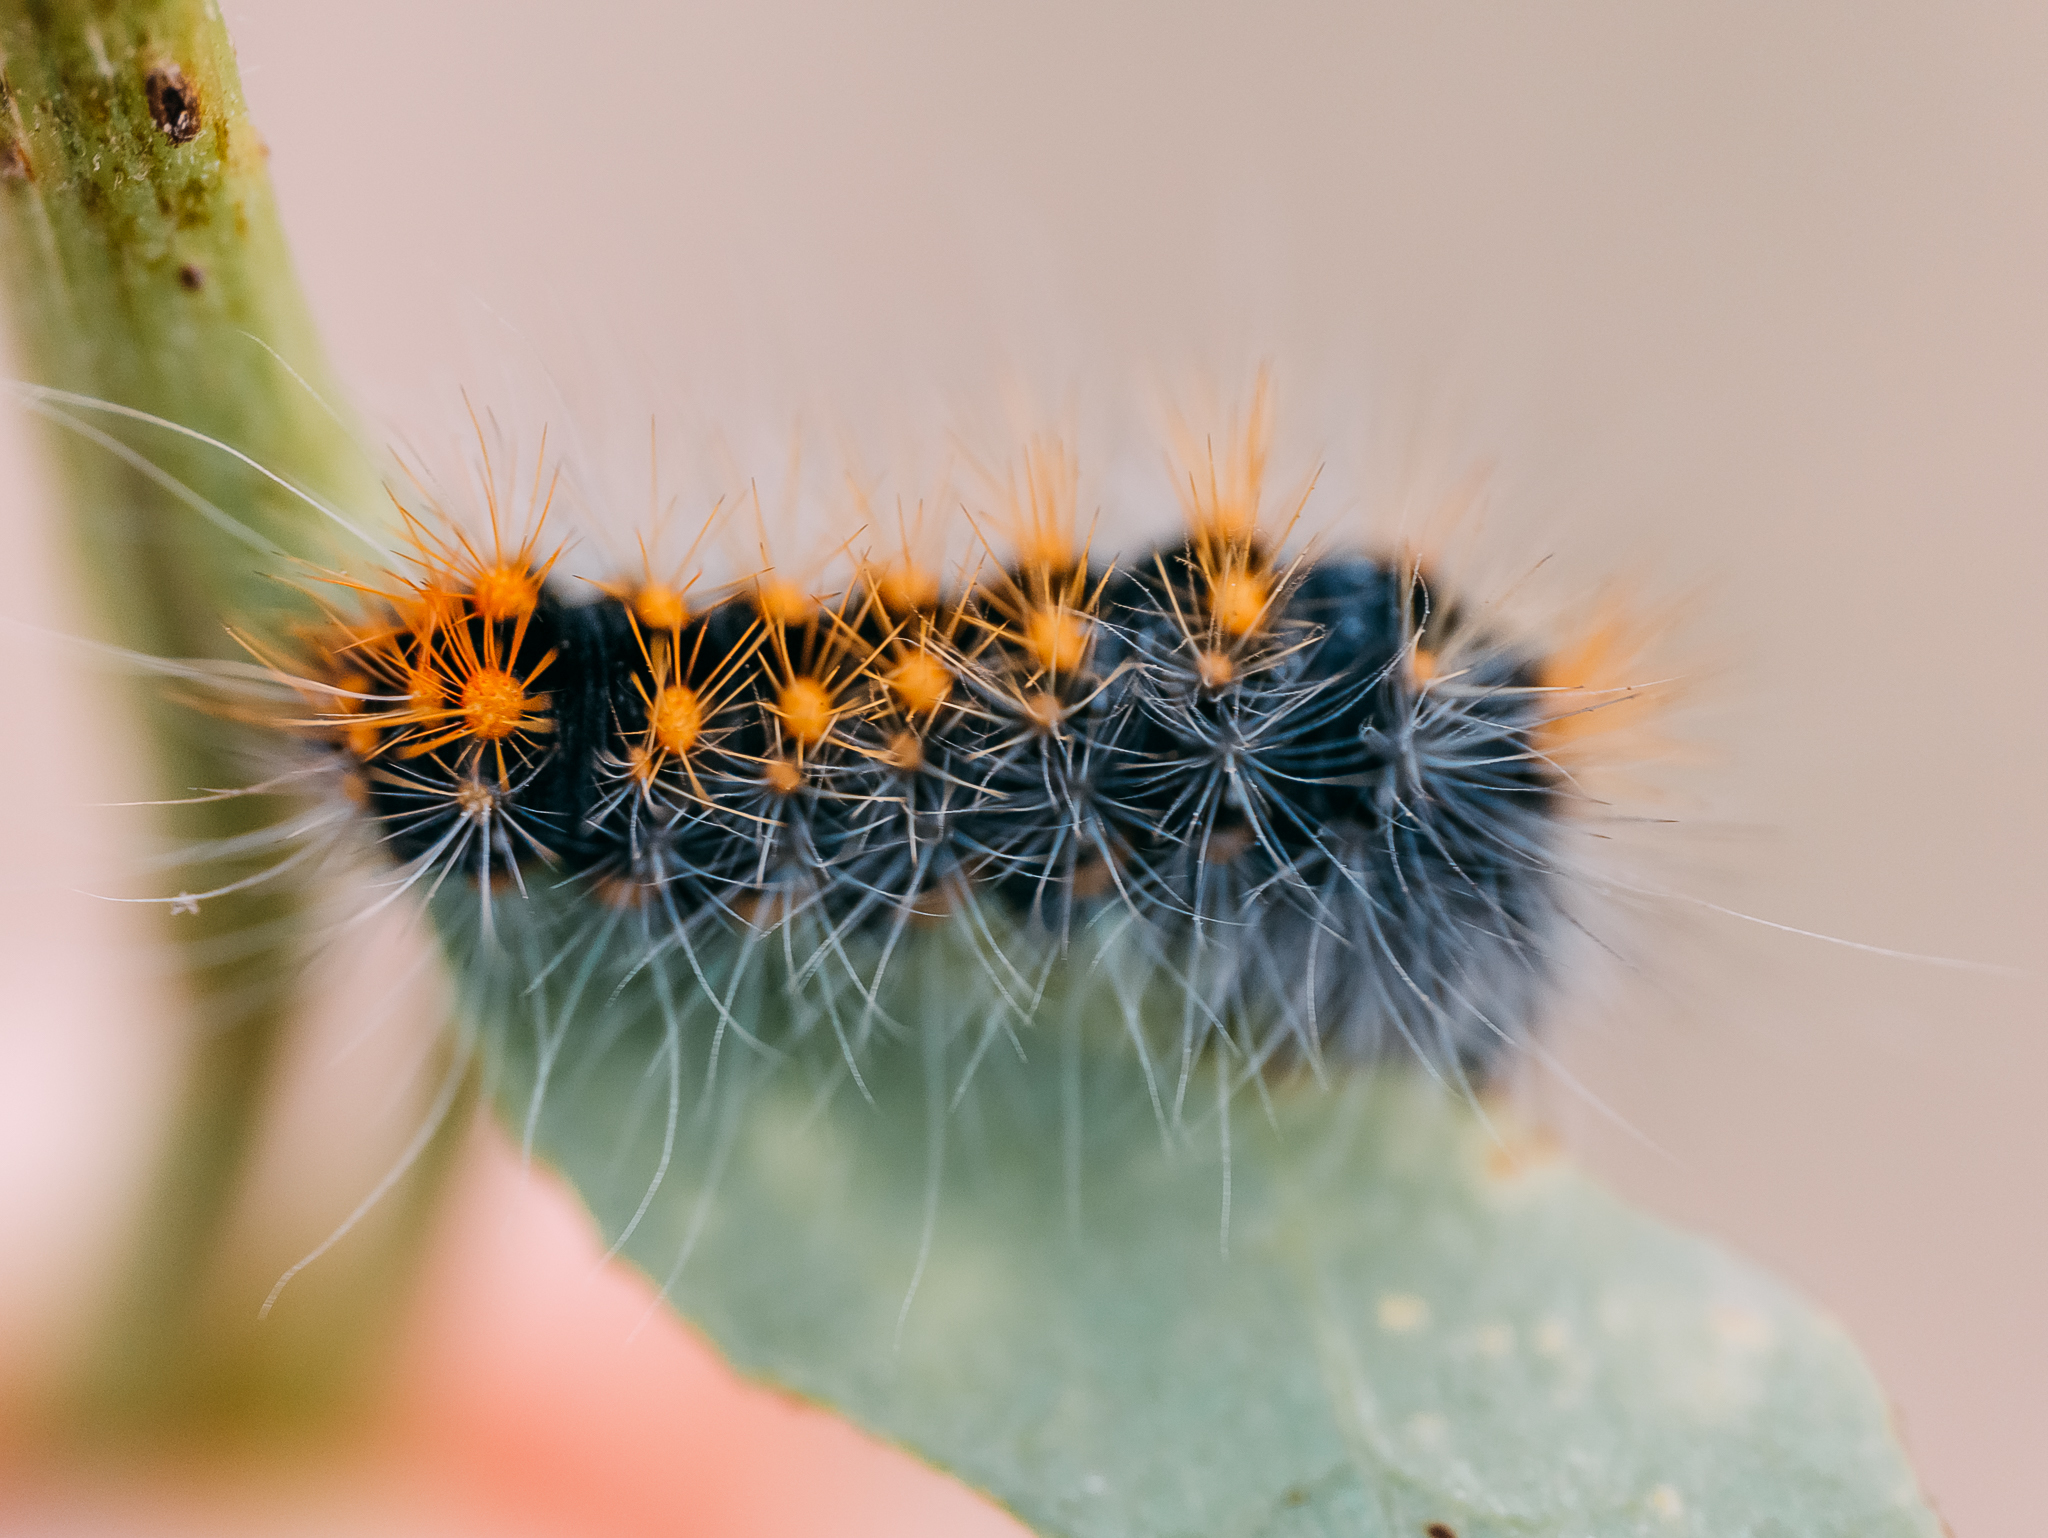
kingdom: Animalia
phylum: Arthropoda
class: Insecta
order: Lepidoptera
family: Noctuidae
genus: Acronicta
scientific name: Acronicta auricoma
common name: Scarce dagger
